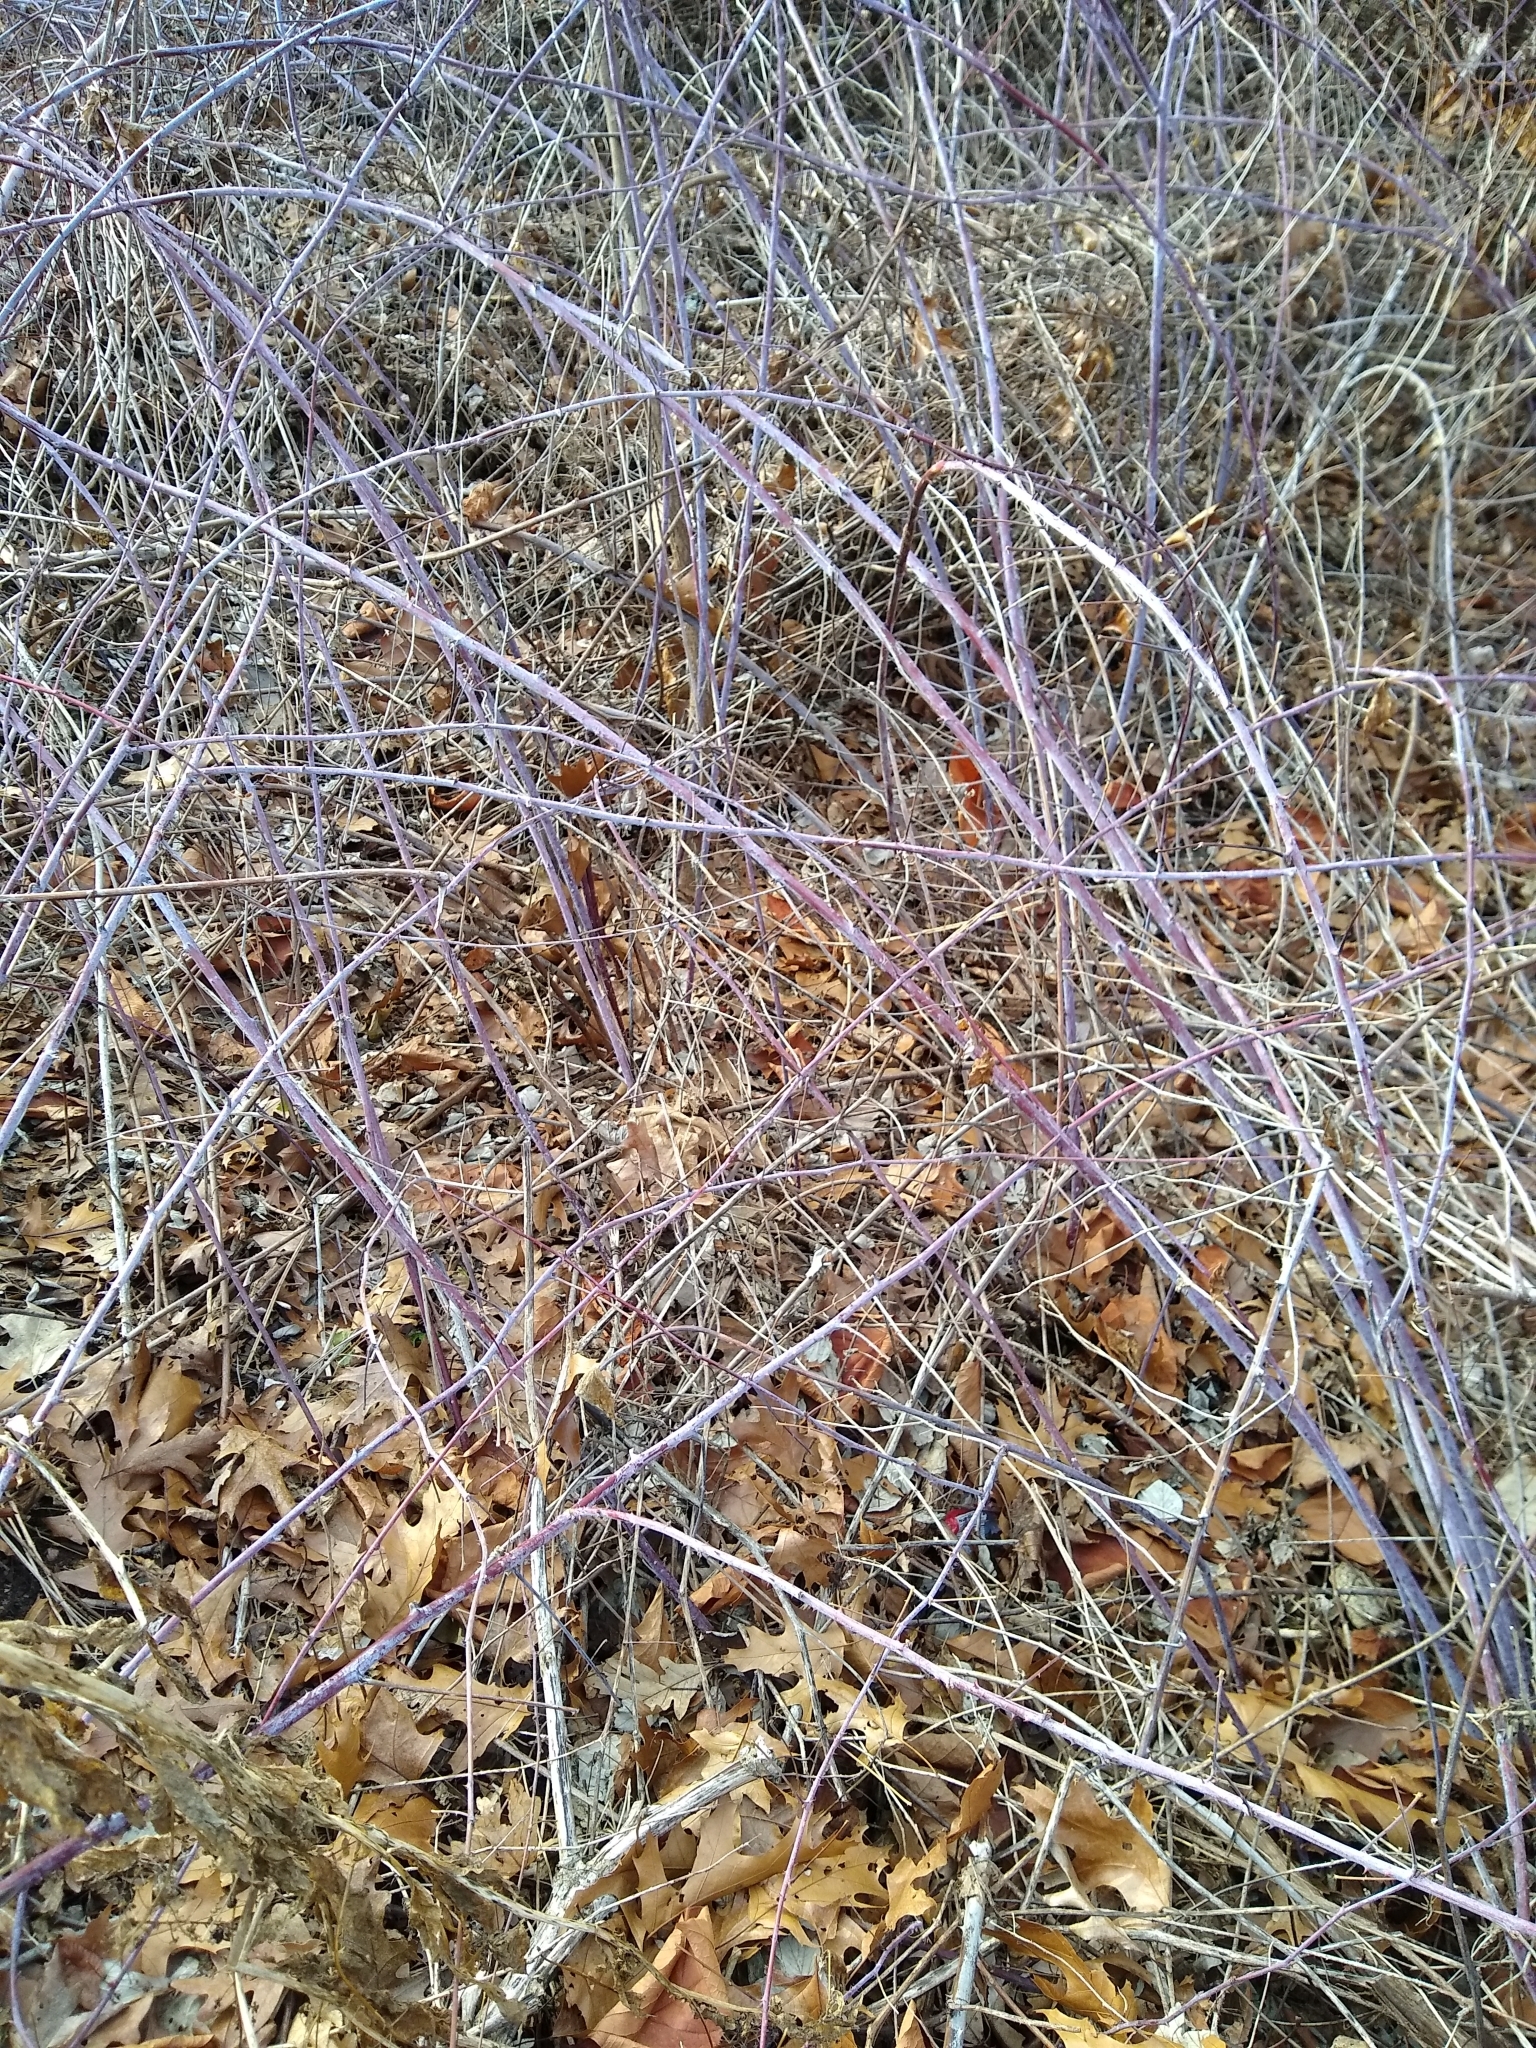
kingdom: Plantae
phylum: Tracheophyta
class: Magnoliopsida
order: Rosales
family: Rosaceae
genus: Rubus
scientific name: Rubus occidentalis
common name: Black raspberry
